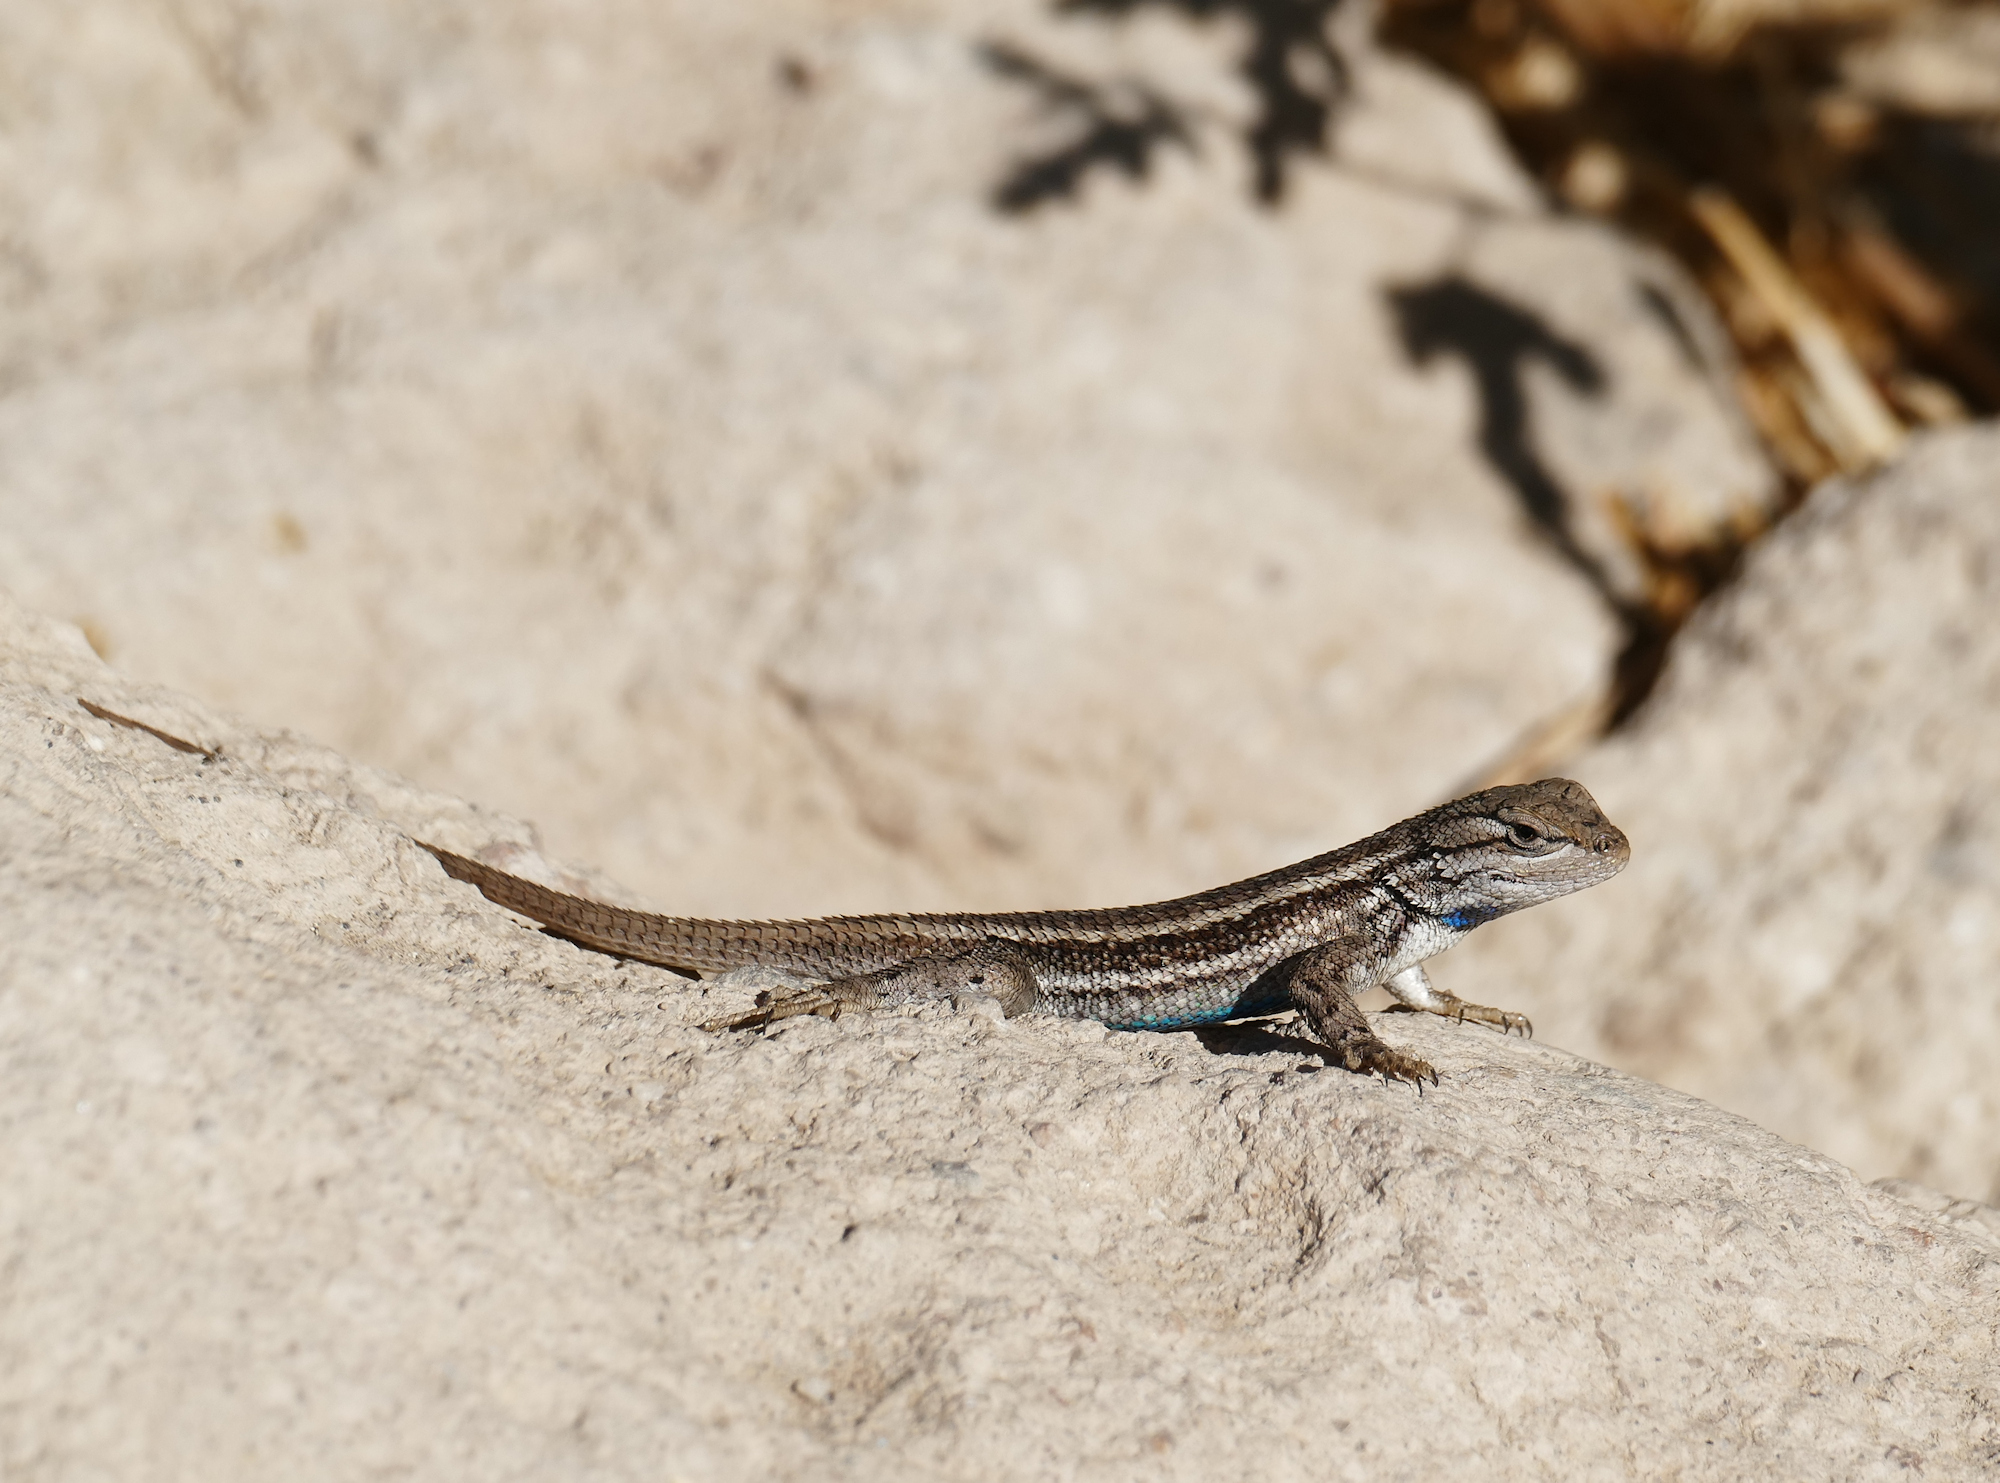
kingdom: Animalia
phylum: Chordata
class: Squamata
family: Phrynosomatidae
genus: Sceloporus
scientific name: Sceloporus cowlesi
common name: White sands prairie lizard
